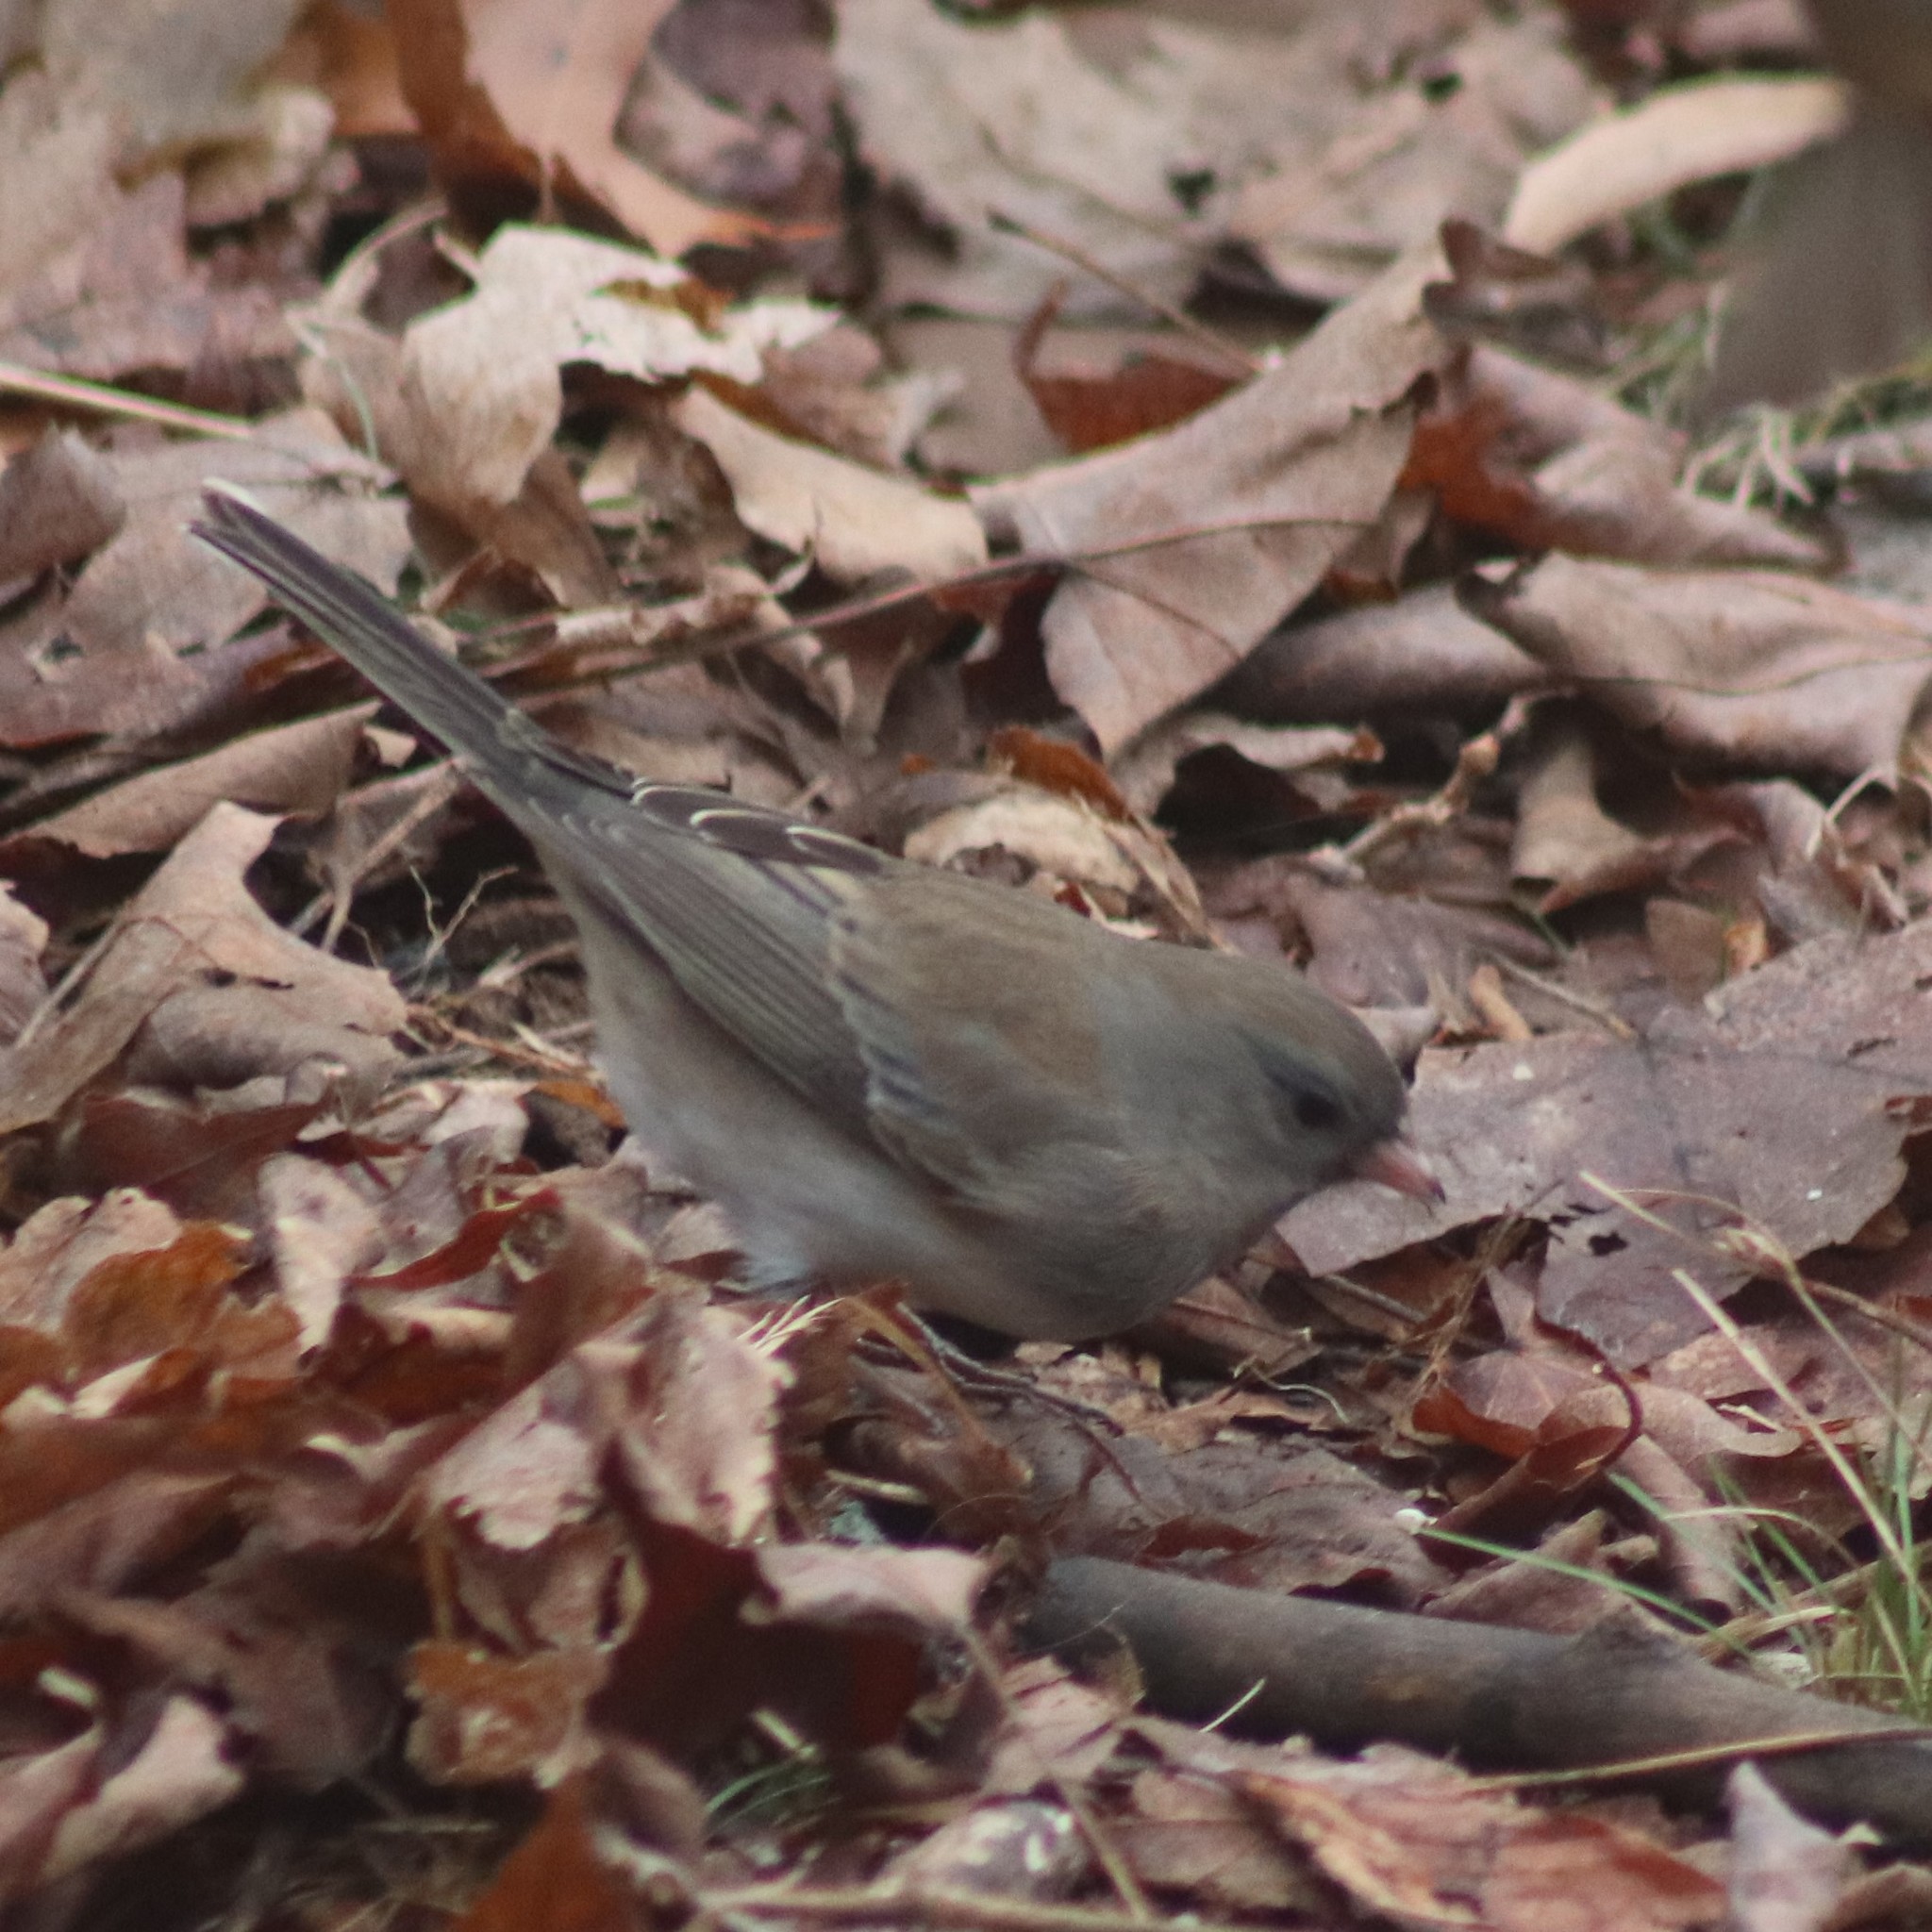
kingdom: Animalia
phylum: Chordata
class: Aves
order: Passeriformes
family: Passerellidae
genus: Junco
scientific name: Junco hyemalis
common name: Dark-eyed junco
